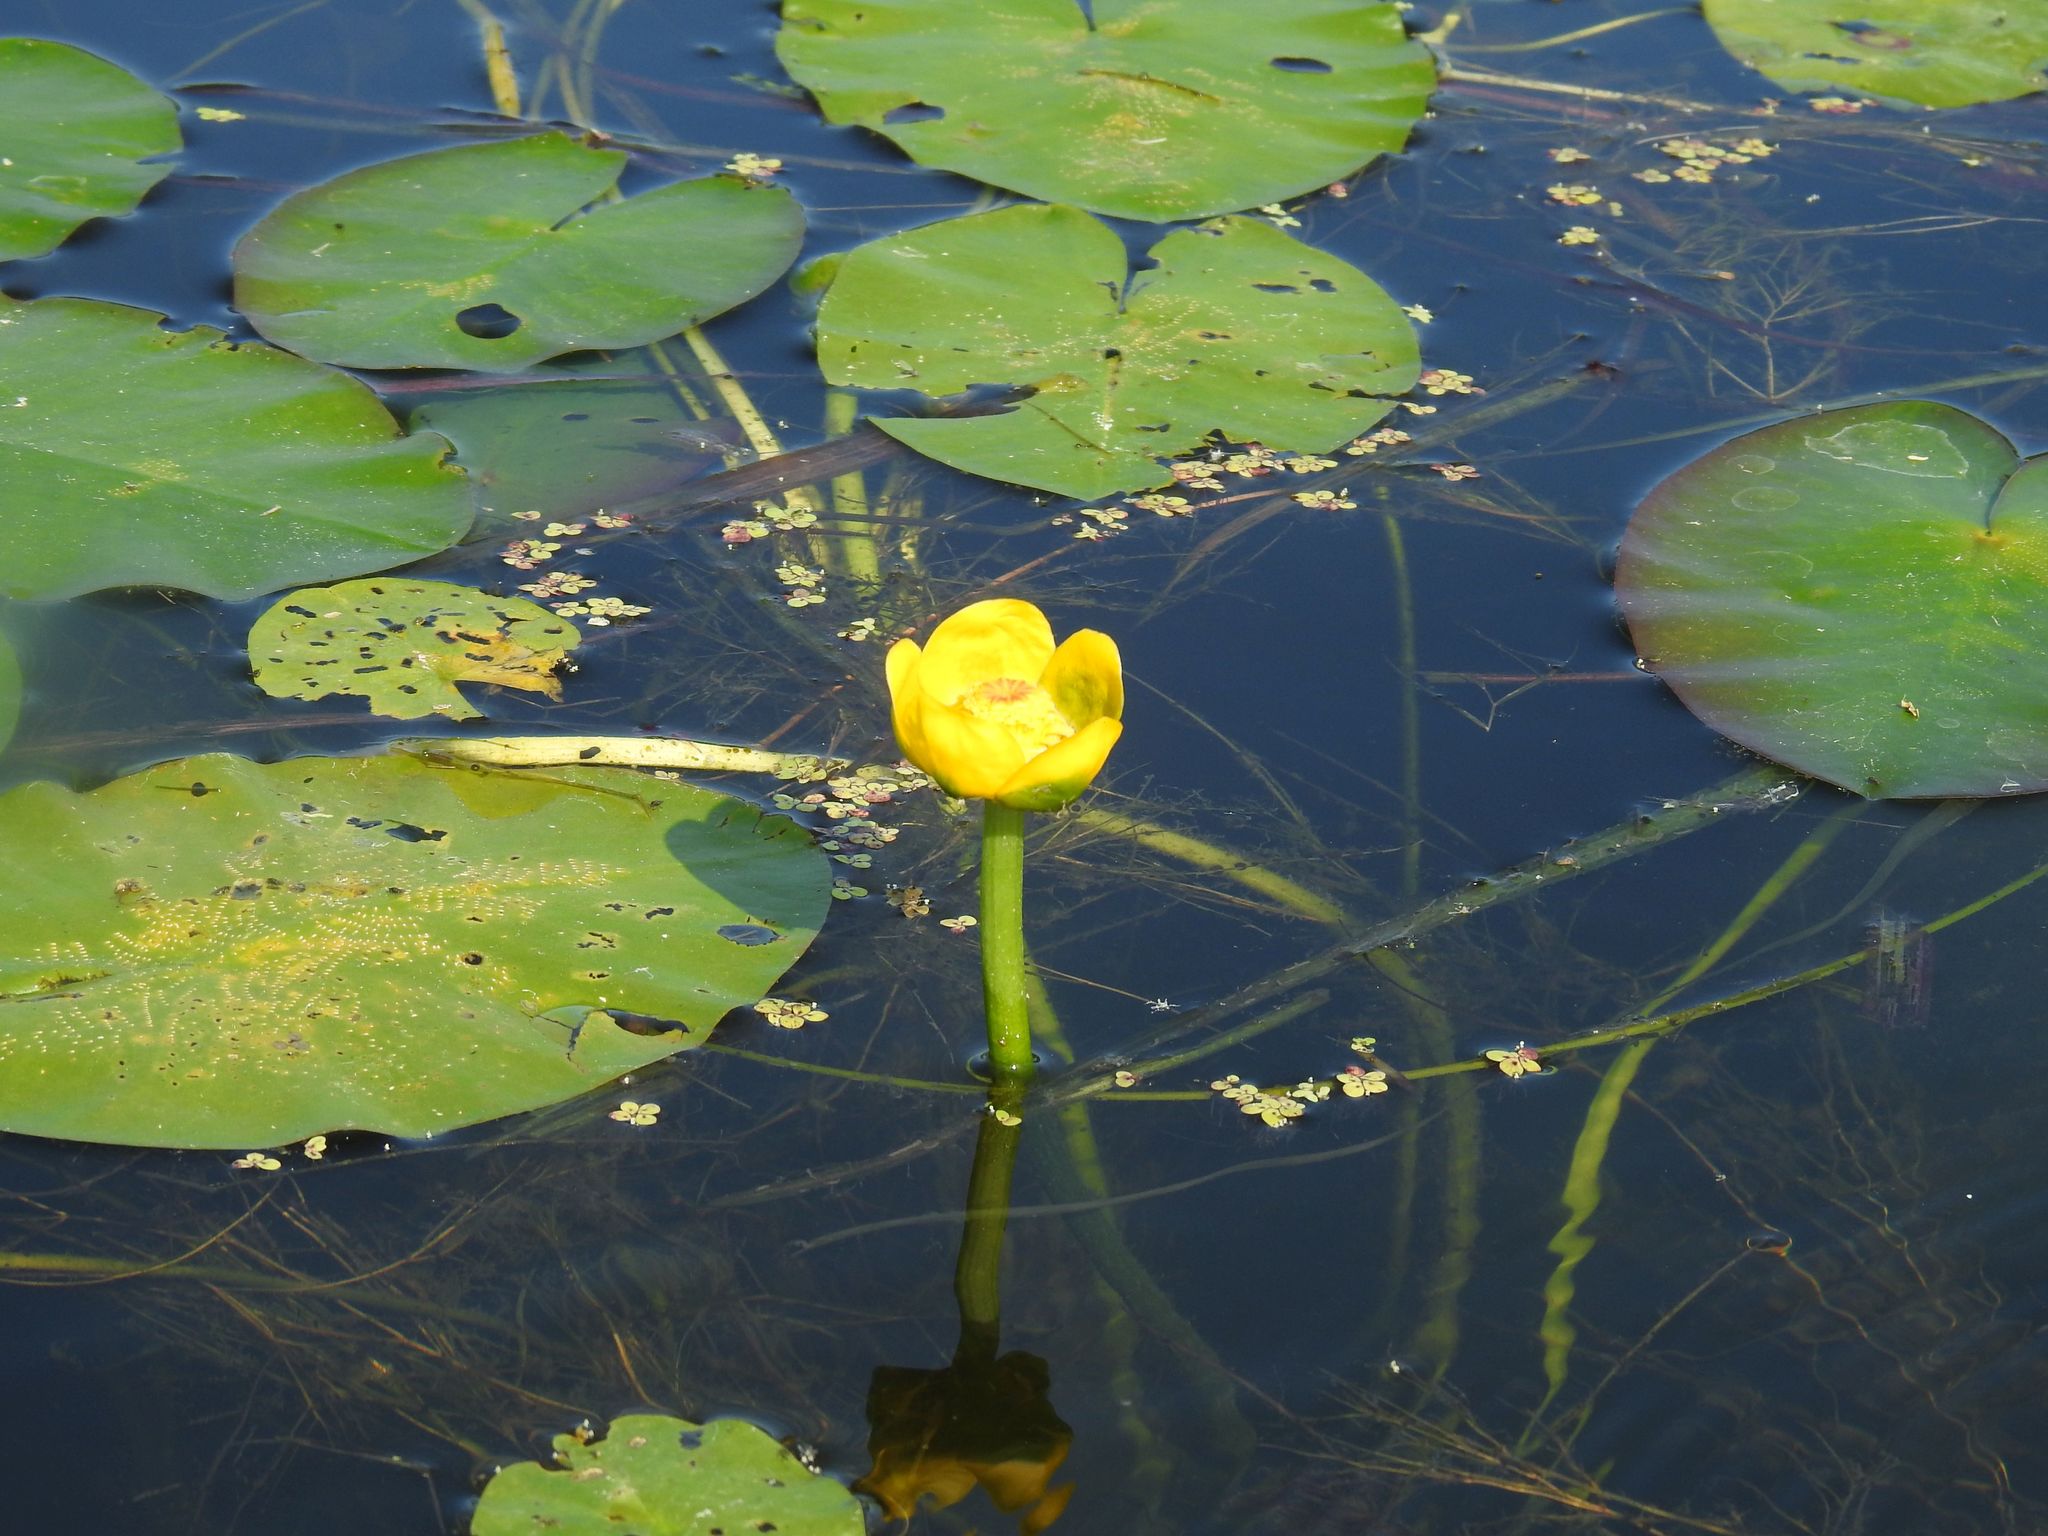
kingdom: Plantae
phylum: Tracheophyta
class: Magnoliopsida
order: Nymphaeales
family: Nymphaeaceae
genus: Nuphar
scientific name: Nuphar variegata
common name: Beaver-root
